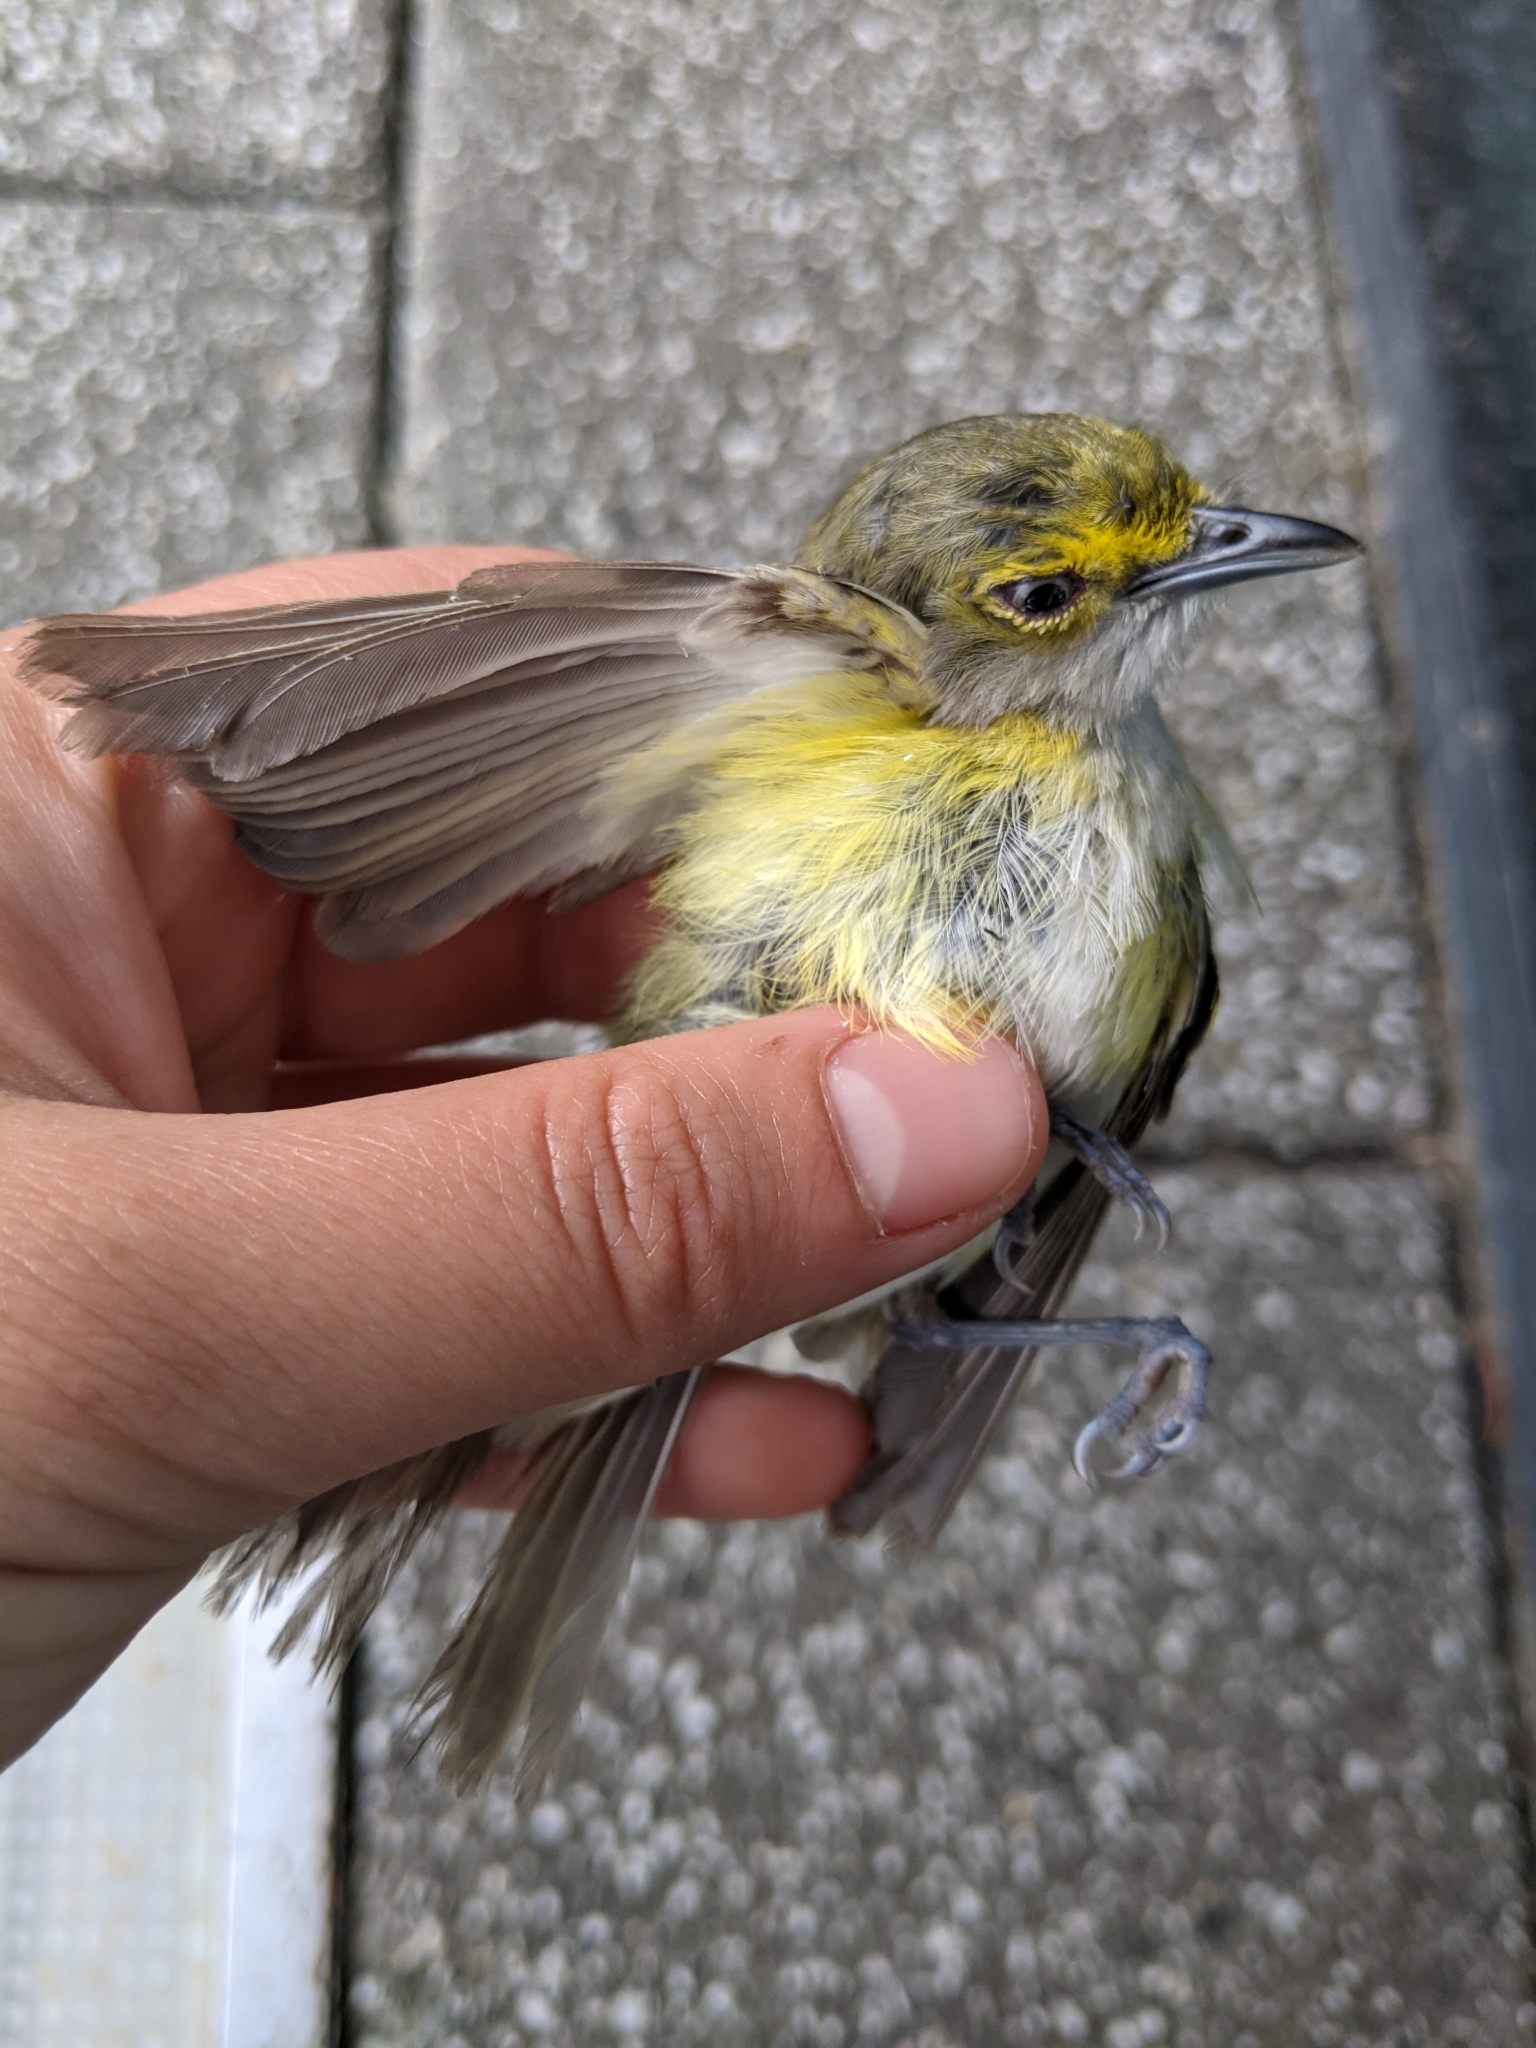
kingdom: Animalia
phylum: Chordata
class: Aves
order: Passeriformes
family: Vireonidae
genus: Vireo
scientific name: Vireo griseus
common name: White-eyed vireo
